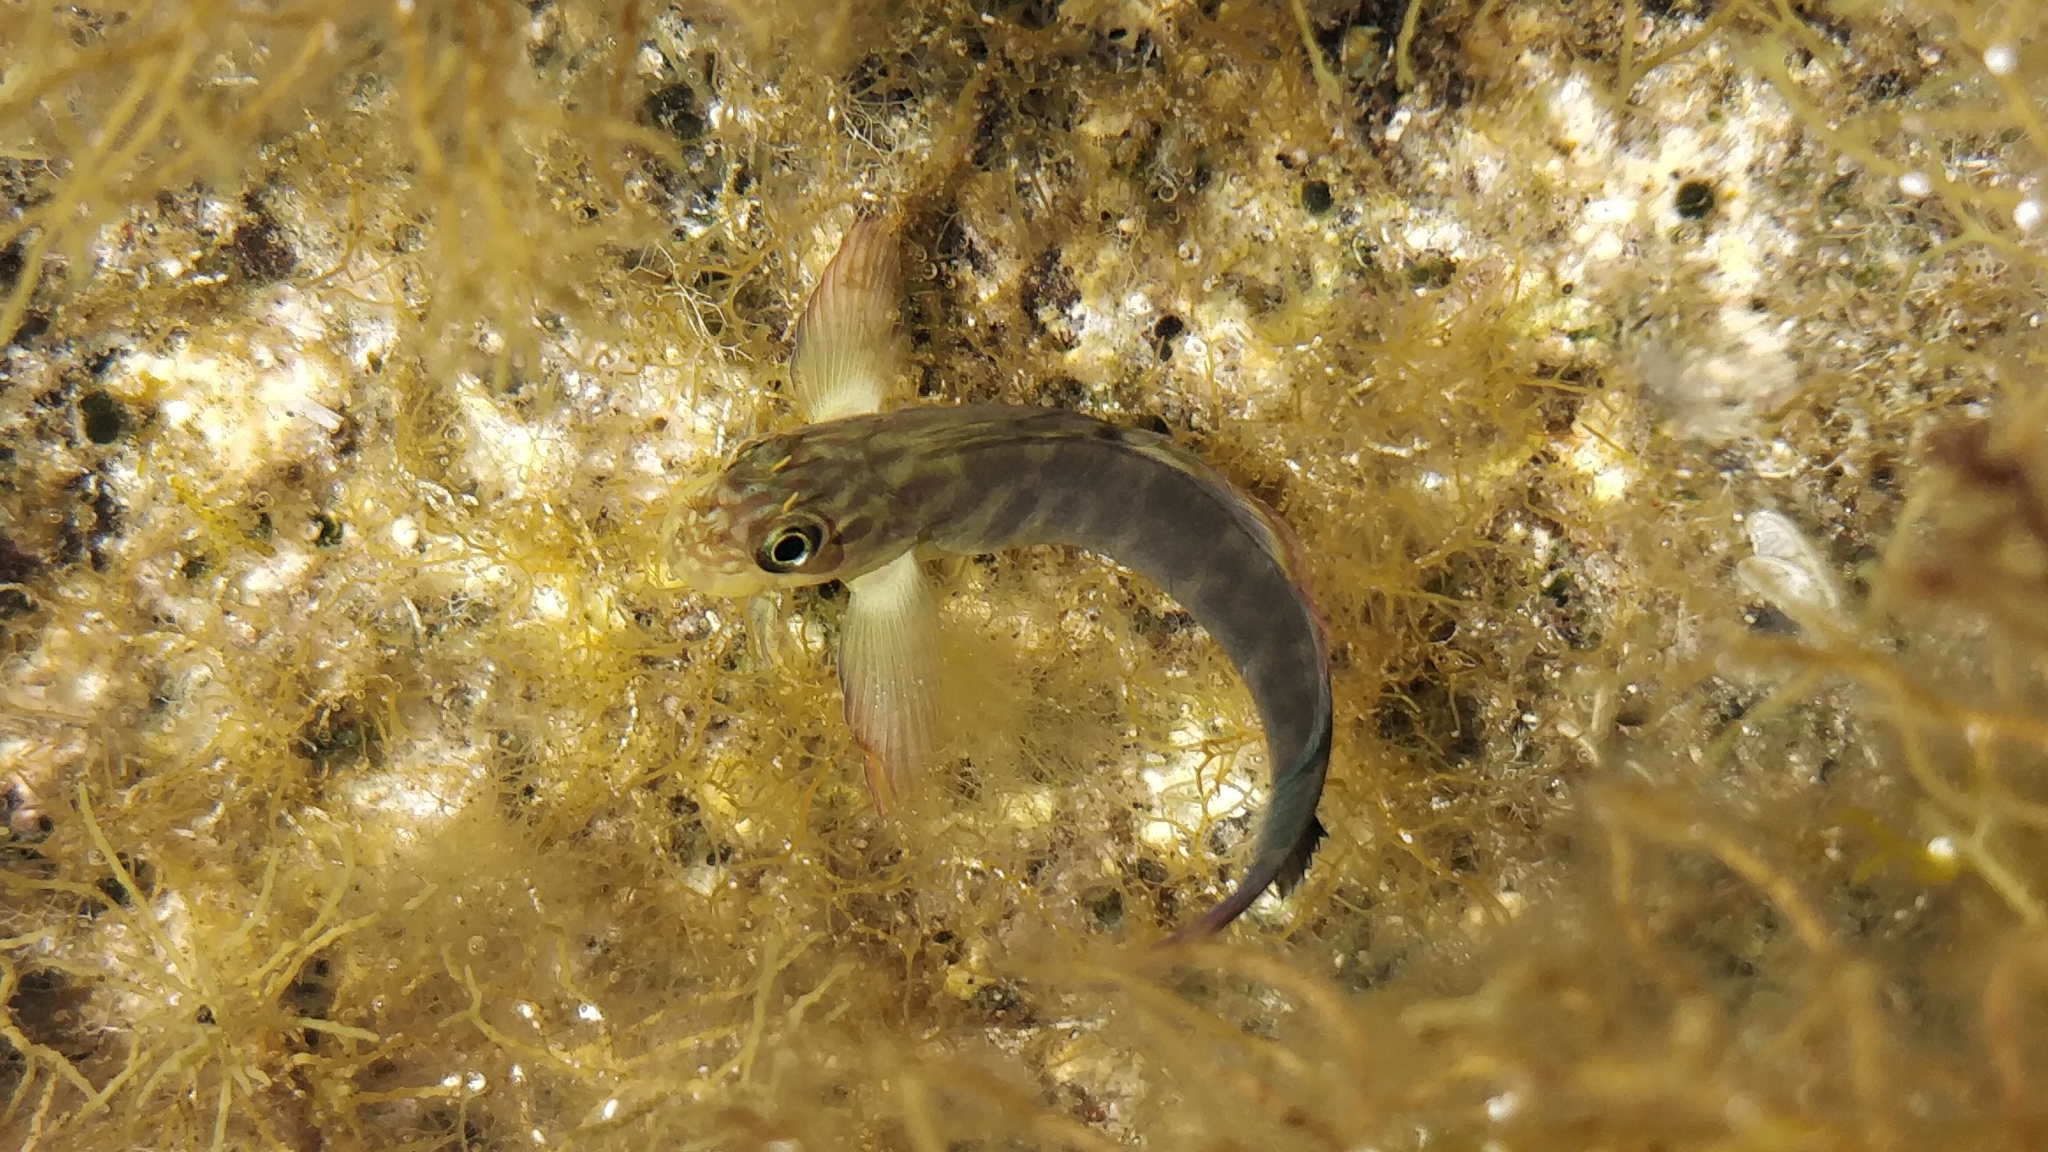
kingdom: Animalia
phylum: Chordata
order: Perciformes
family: Blenniidae
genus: Ophioblennius
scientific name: Ophioblennius atlanticus
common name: Redlip blenny
